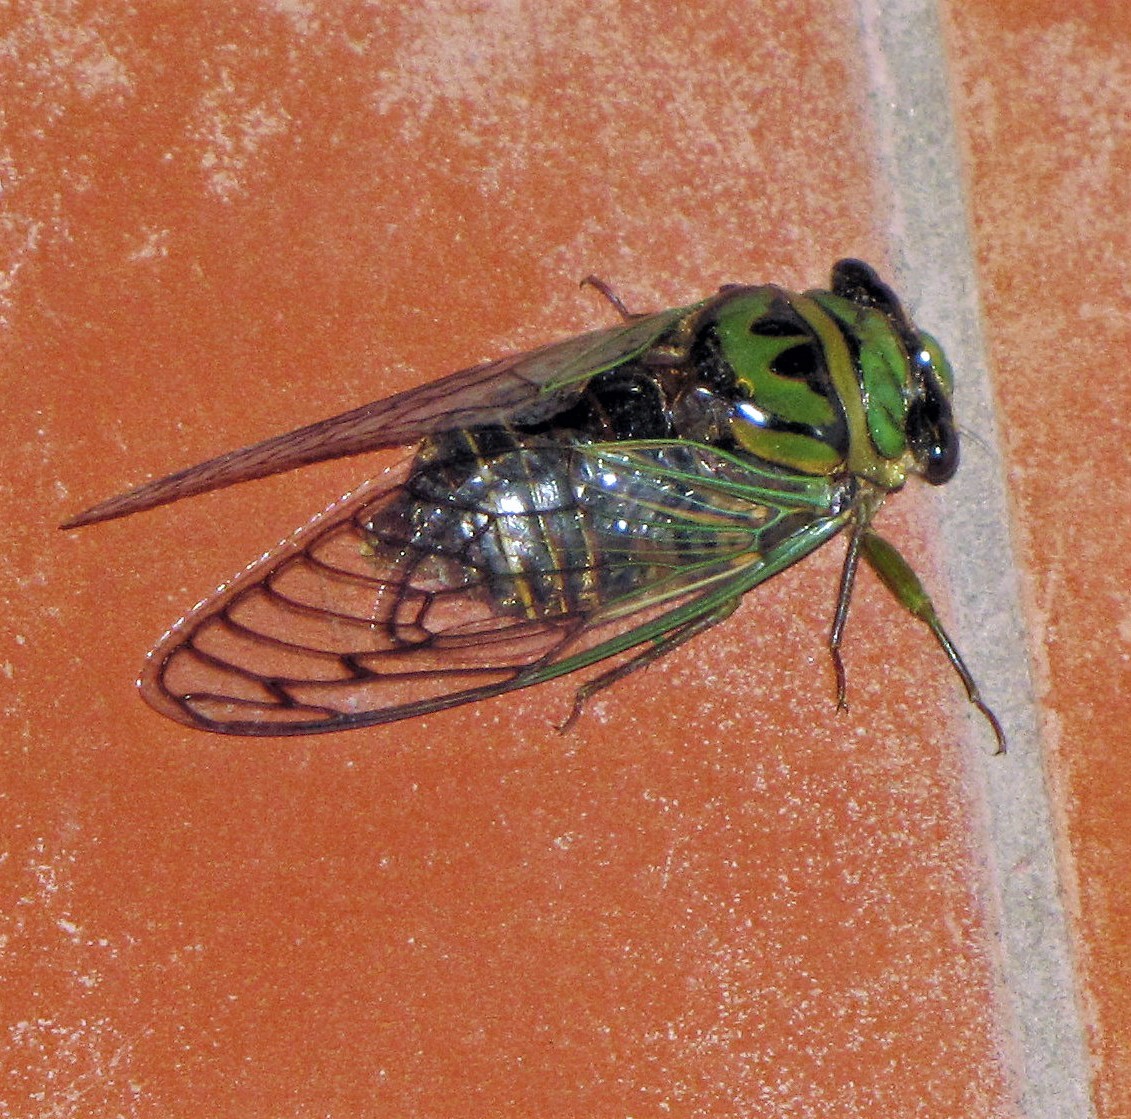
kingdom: Animalia
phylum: Arthropoda
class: Insecta
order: Hemiptera
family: Cicadidae
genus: Guyalna
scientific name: Guyalna bonaerensis
